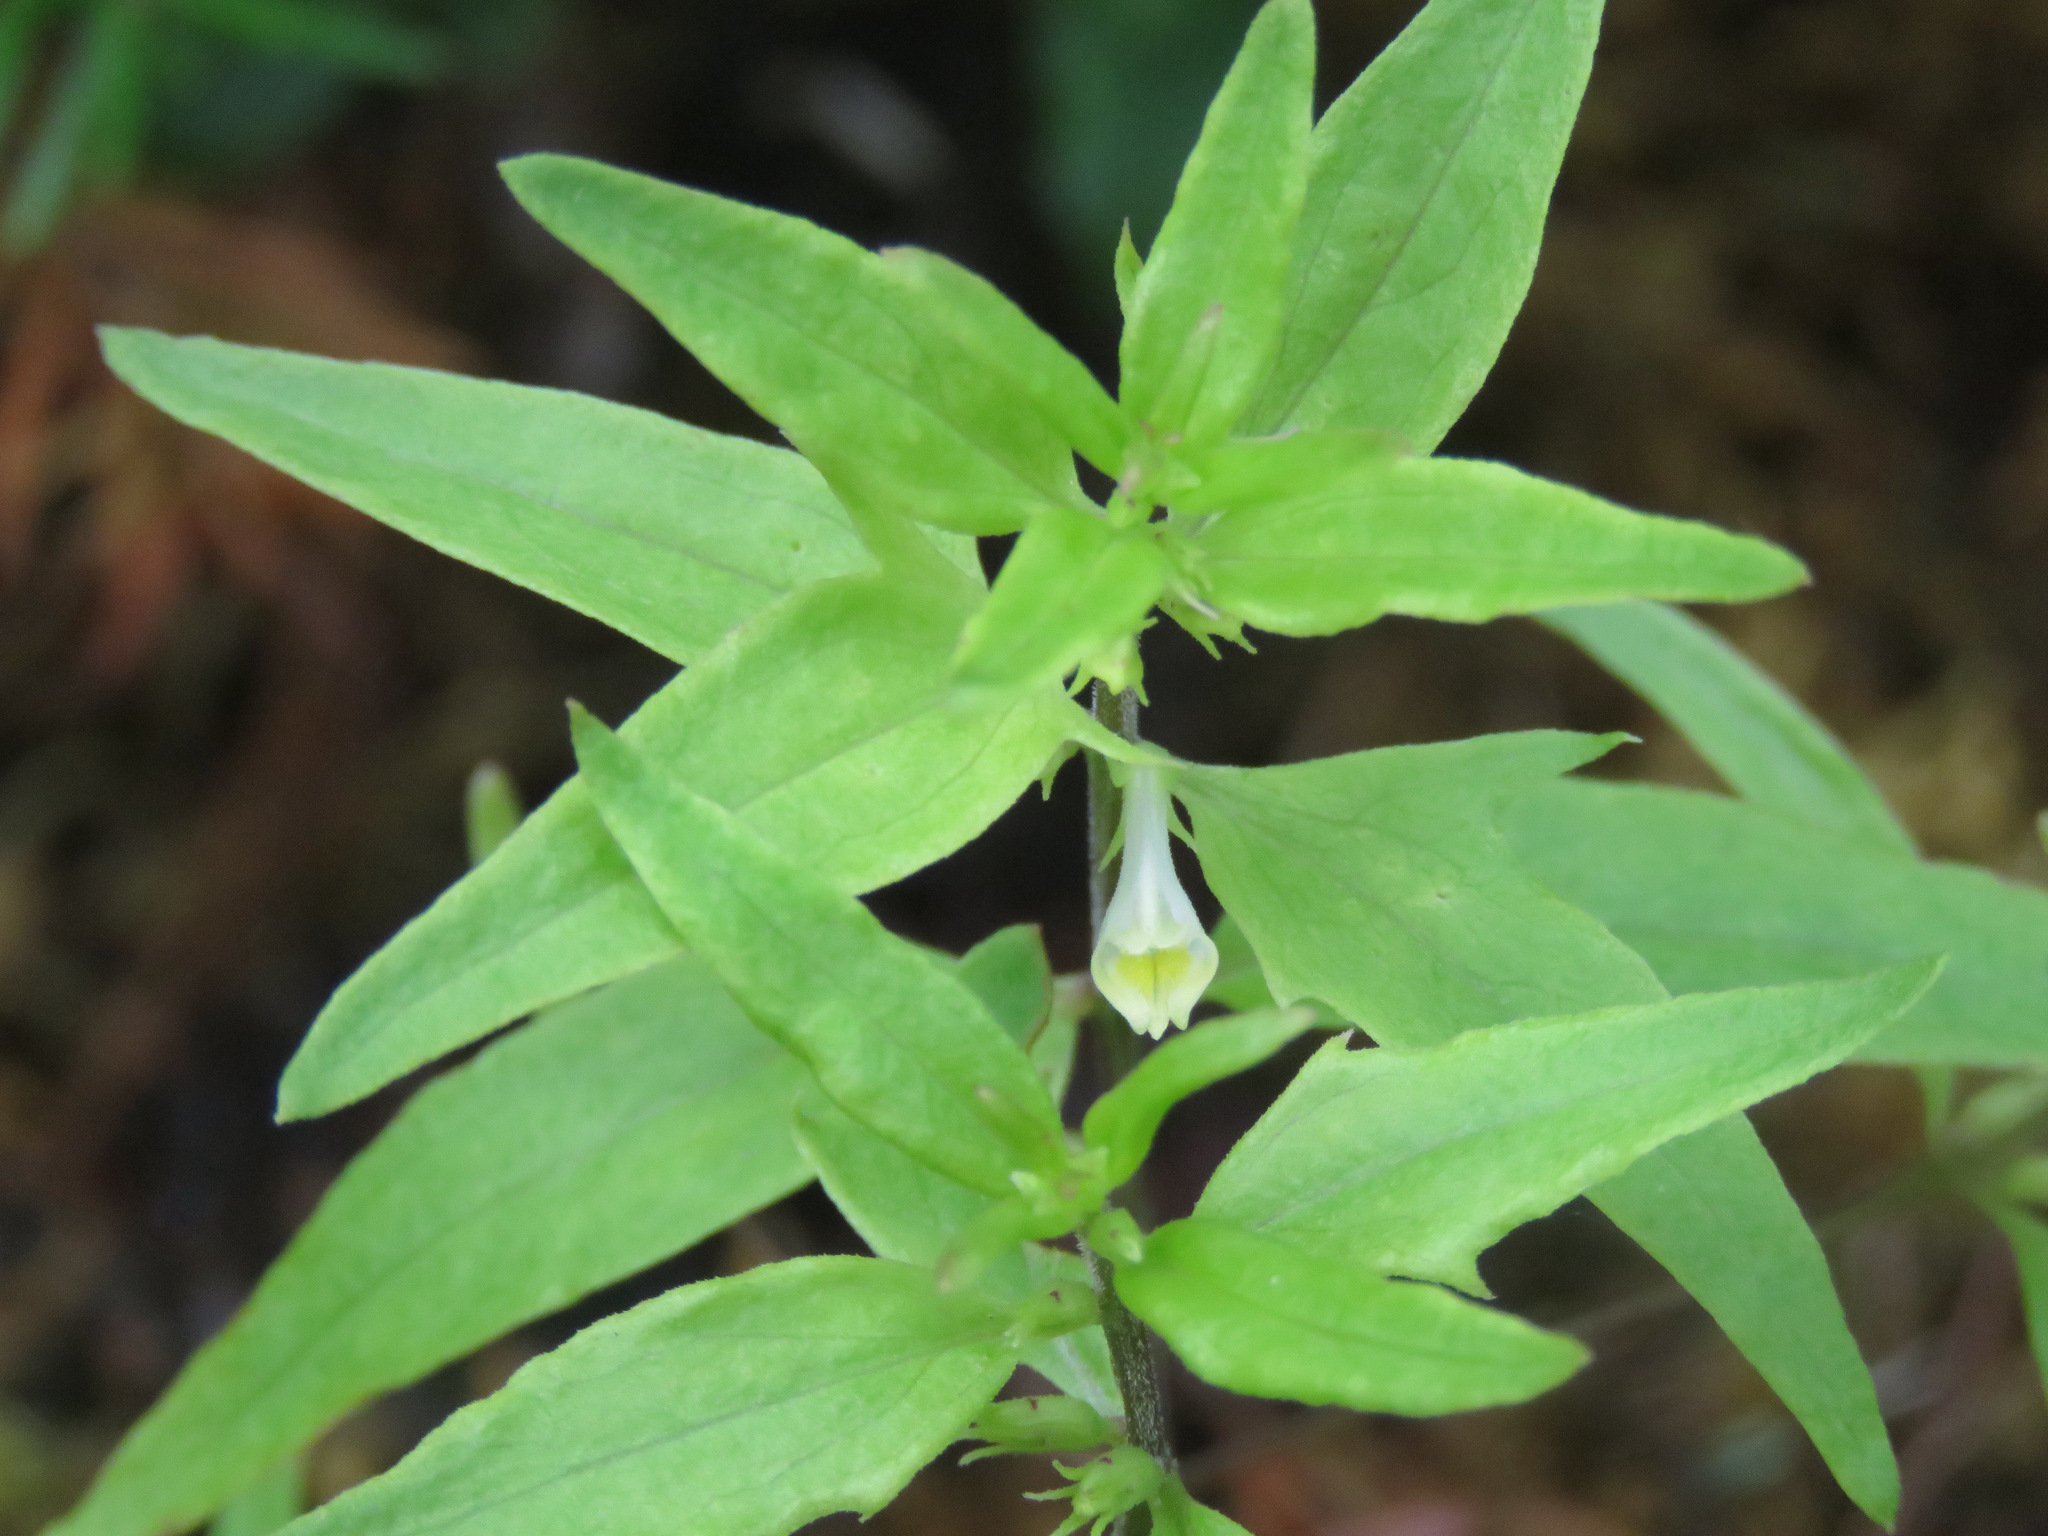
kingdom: Plantae
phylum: Tracheophyta
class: Magnoliopsida
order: Lamiales
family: Orobanchaceae
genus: Melampyrum
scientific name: Melampyrum lineare
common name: American cow-wheat
